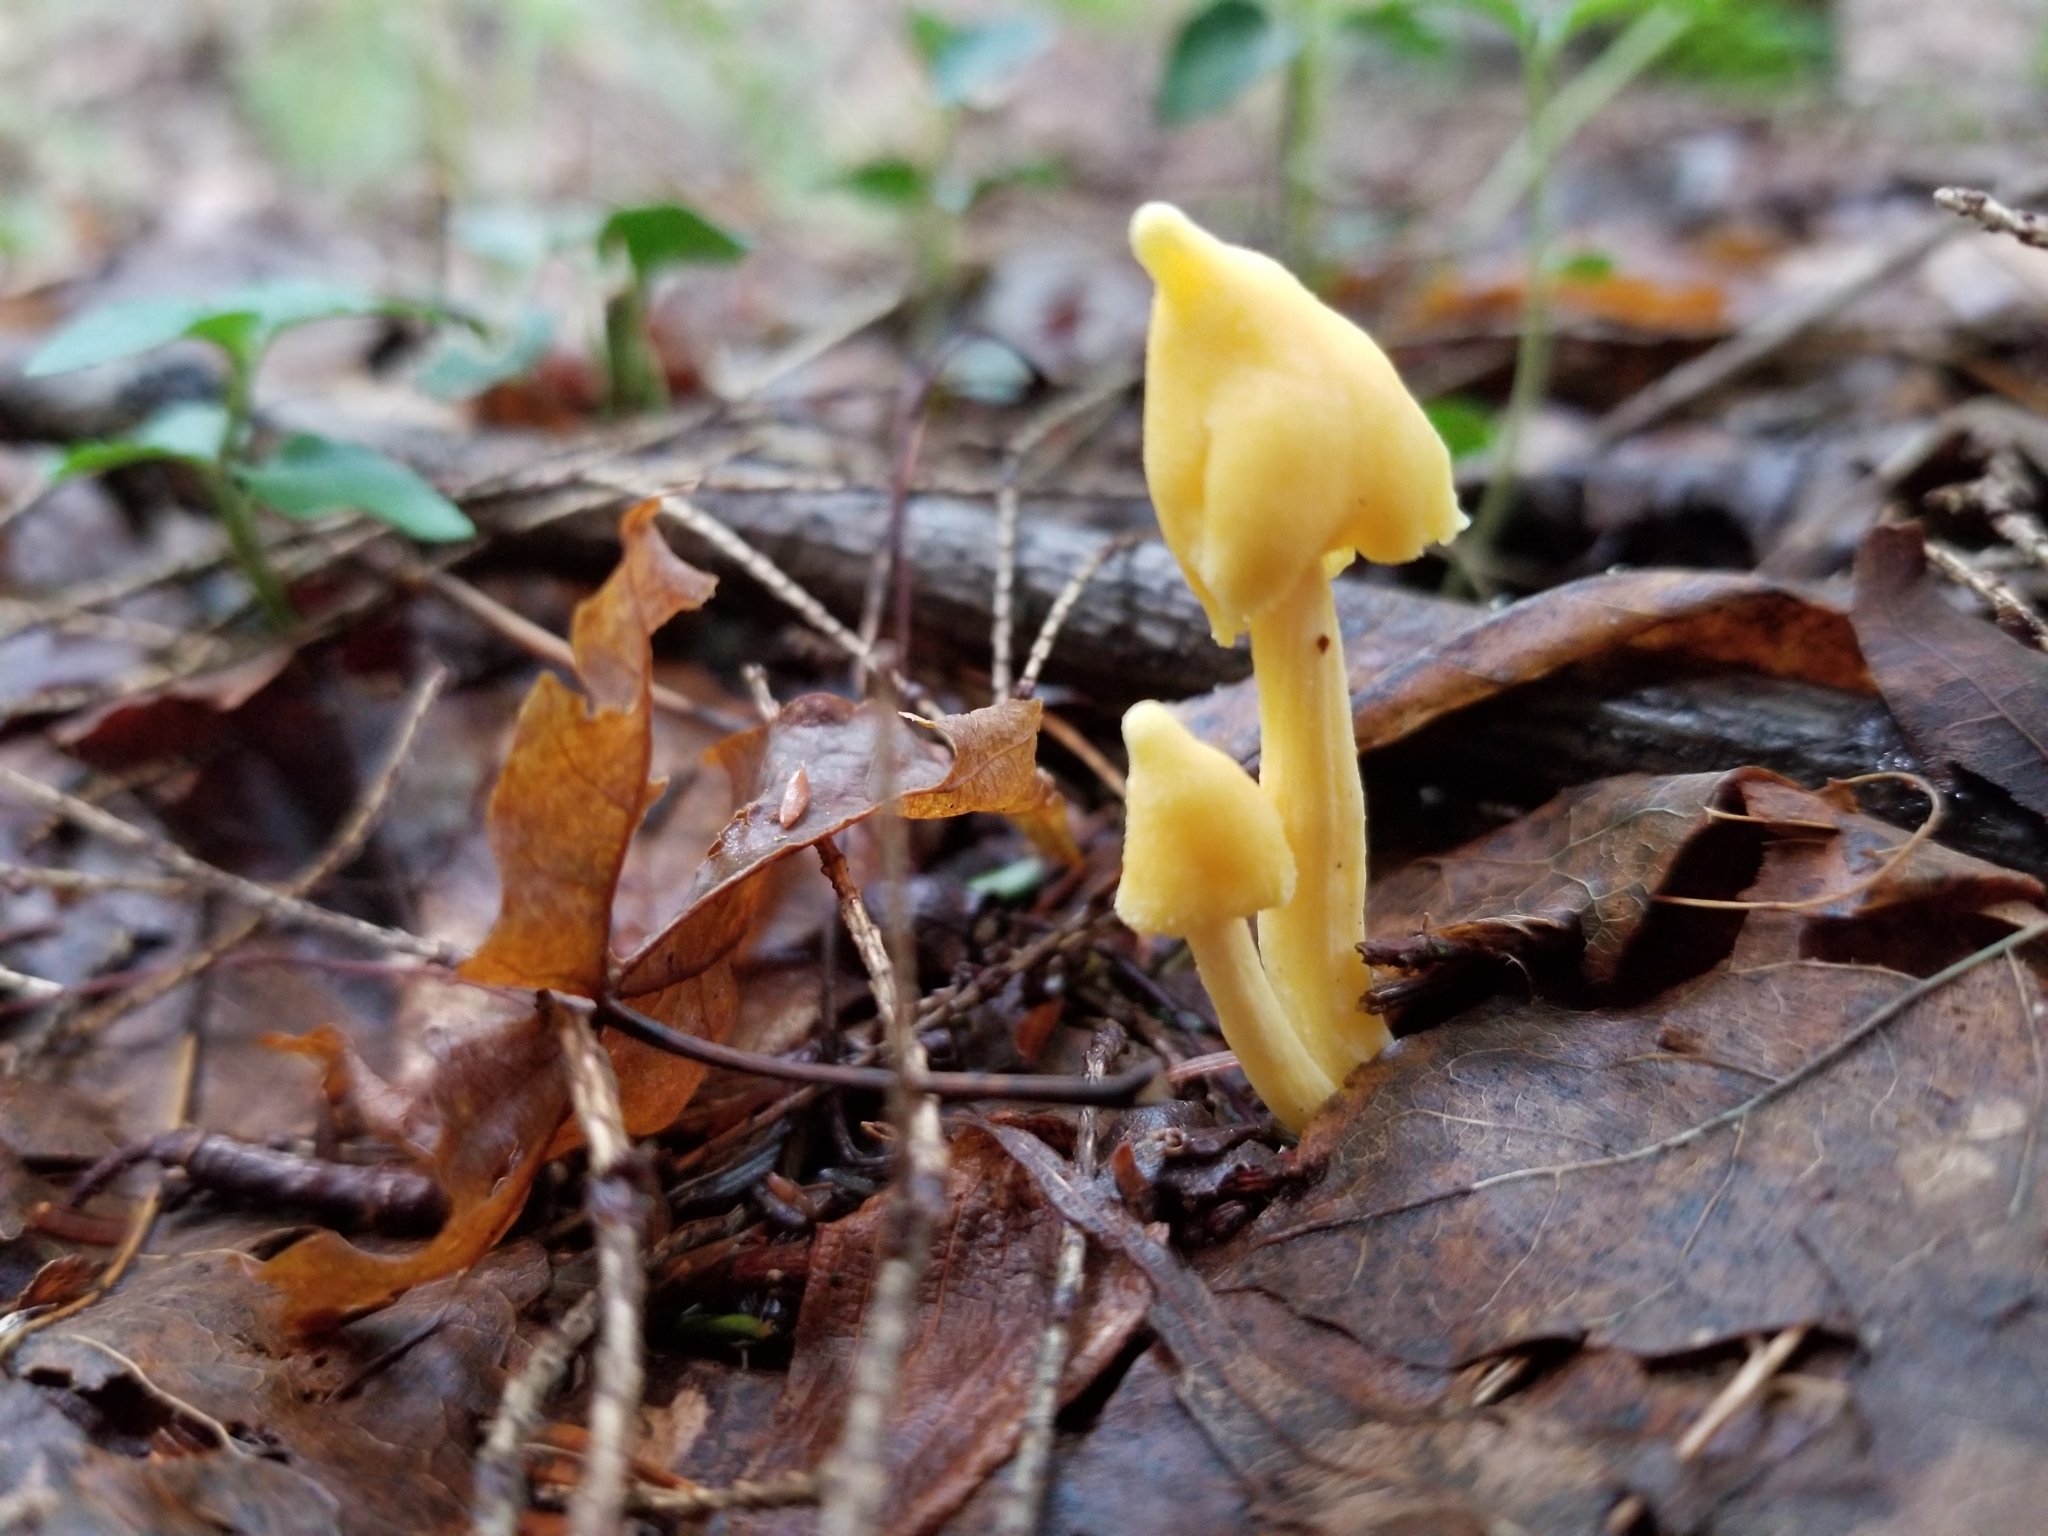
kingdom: Fungi
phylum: Basidiomycota
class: Agaricomycetes
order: Agaricales
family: Entolomataceae
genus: Entoloma
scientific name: Entoloma murrayi
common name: Yellow unicorn entoloma
